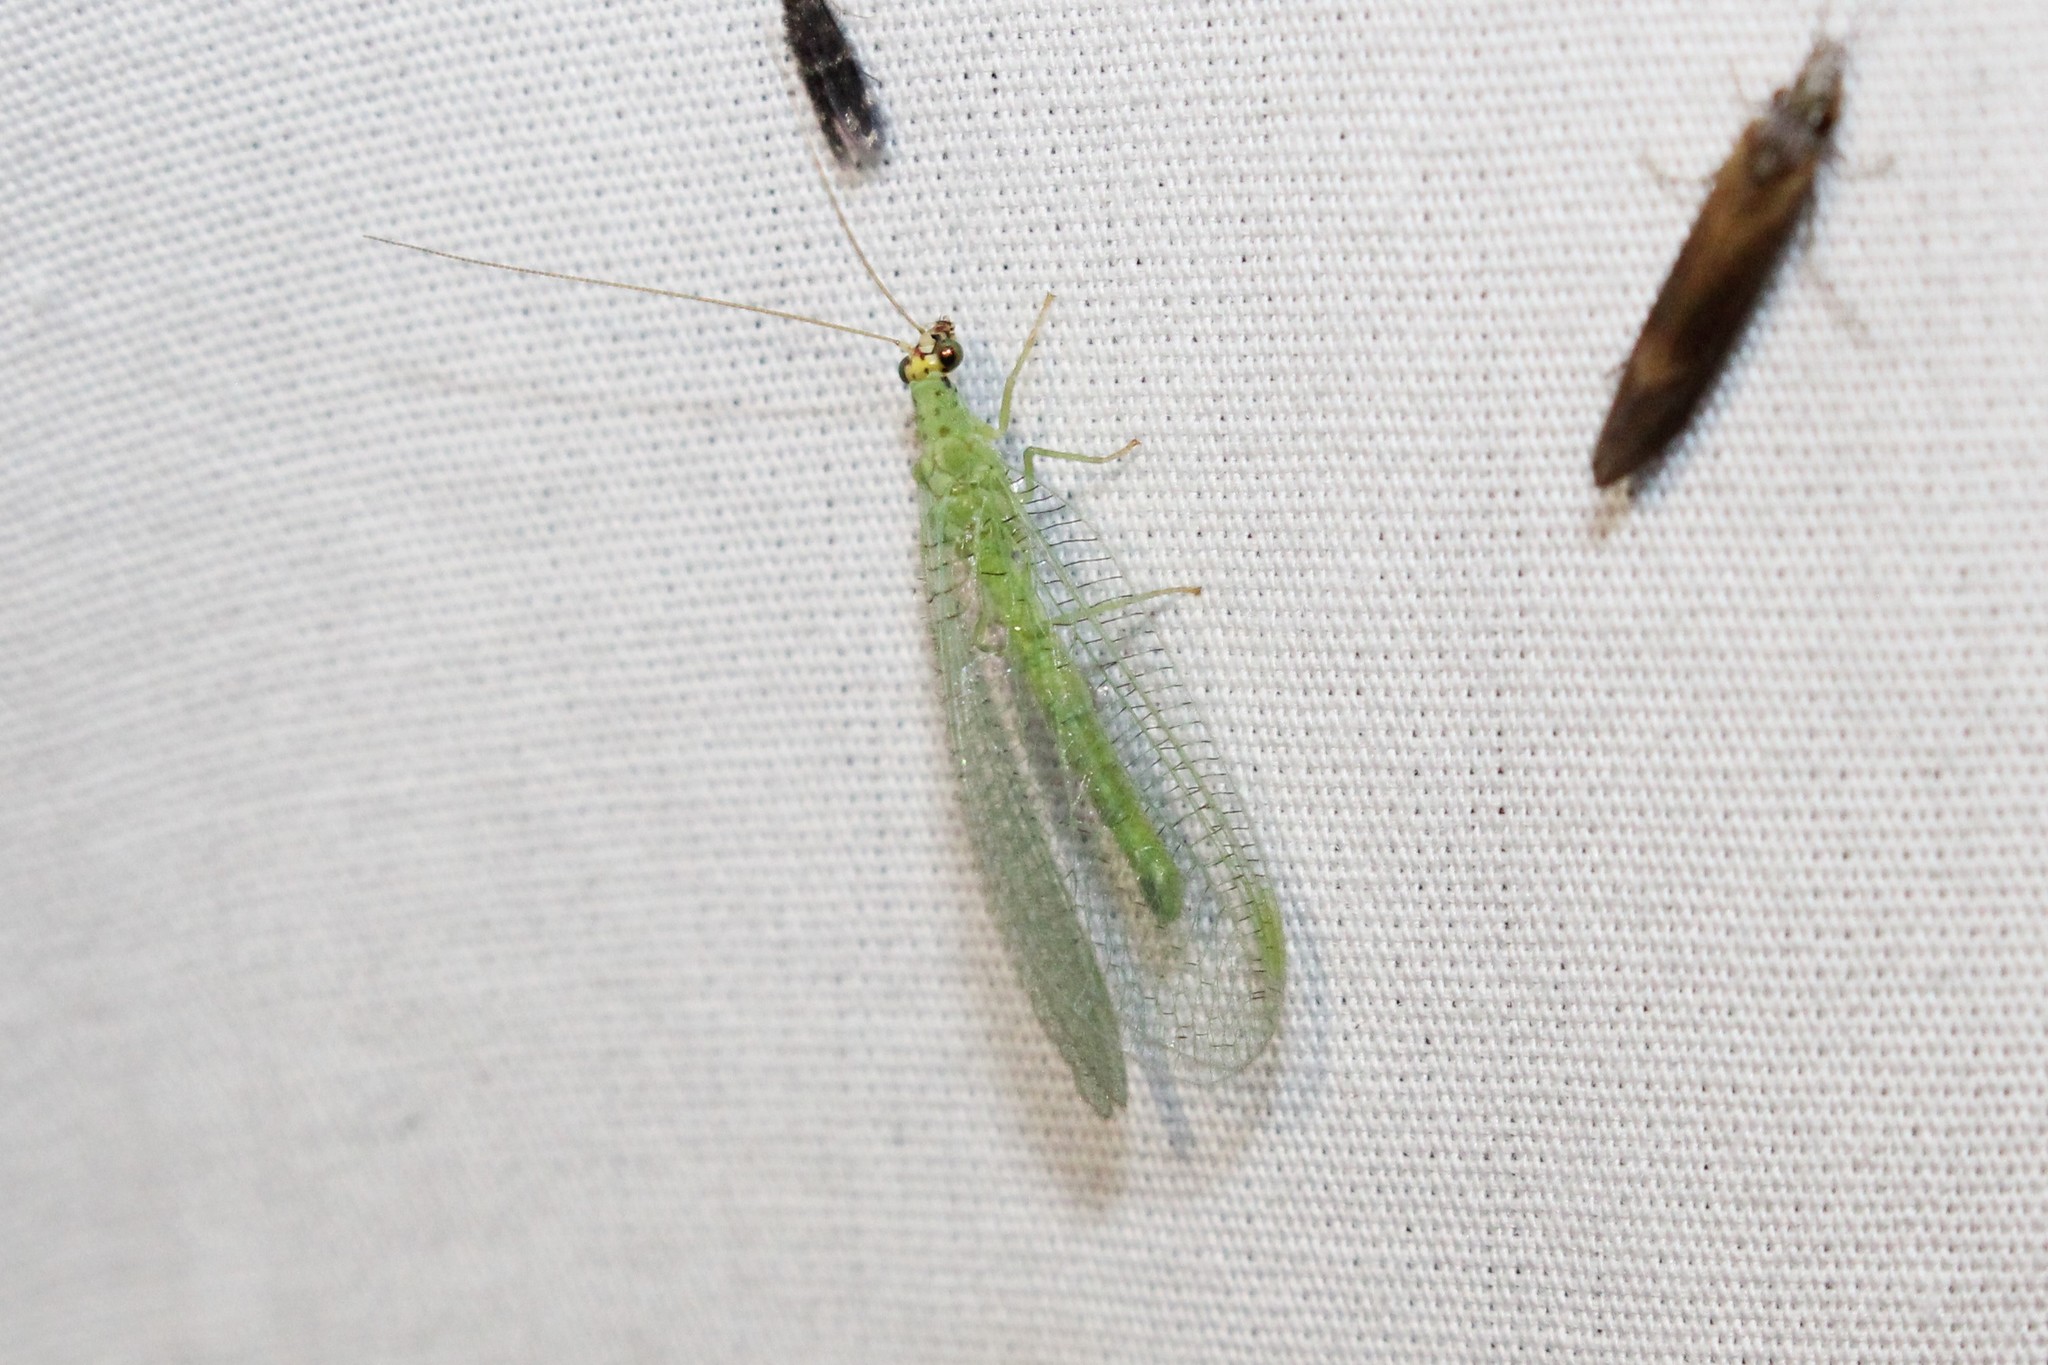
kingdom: Animalia
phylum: Arthropoda
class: Insecta
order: Neuroptera
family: Chrysopidae
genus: Chrysopa
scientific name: Chrysopa oculata
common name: Golden-eyed lacewing
